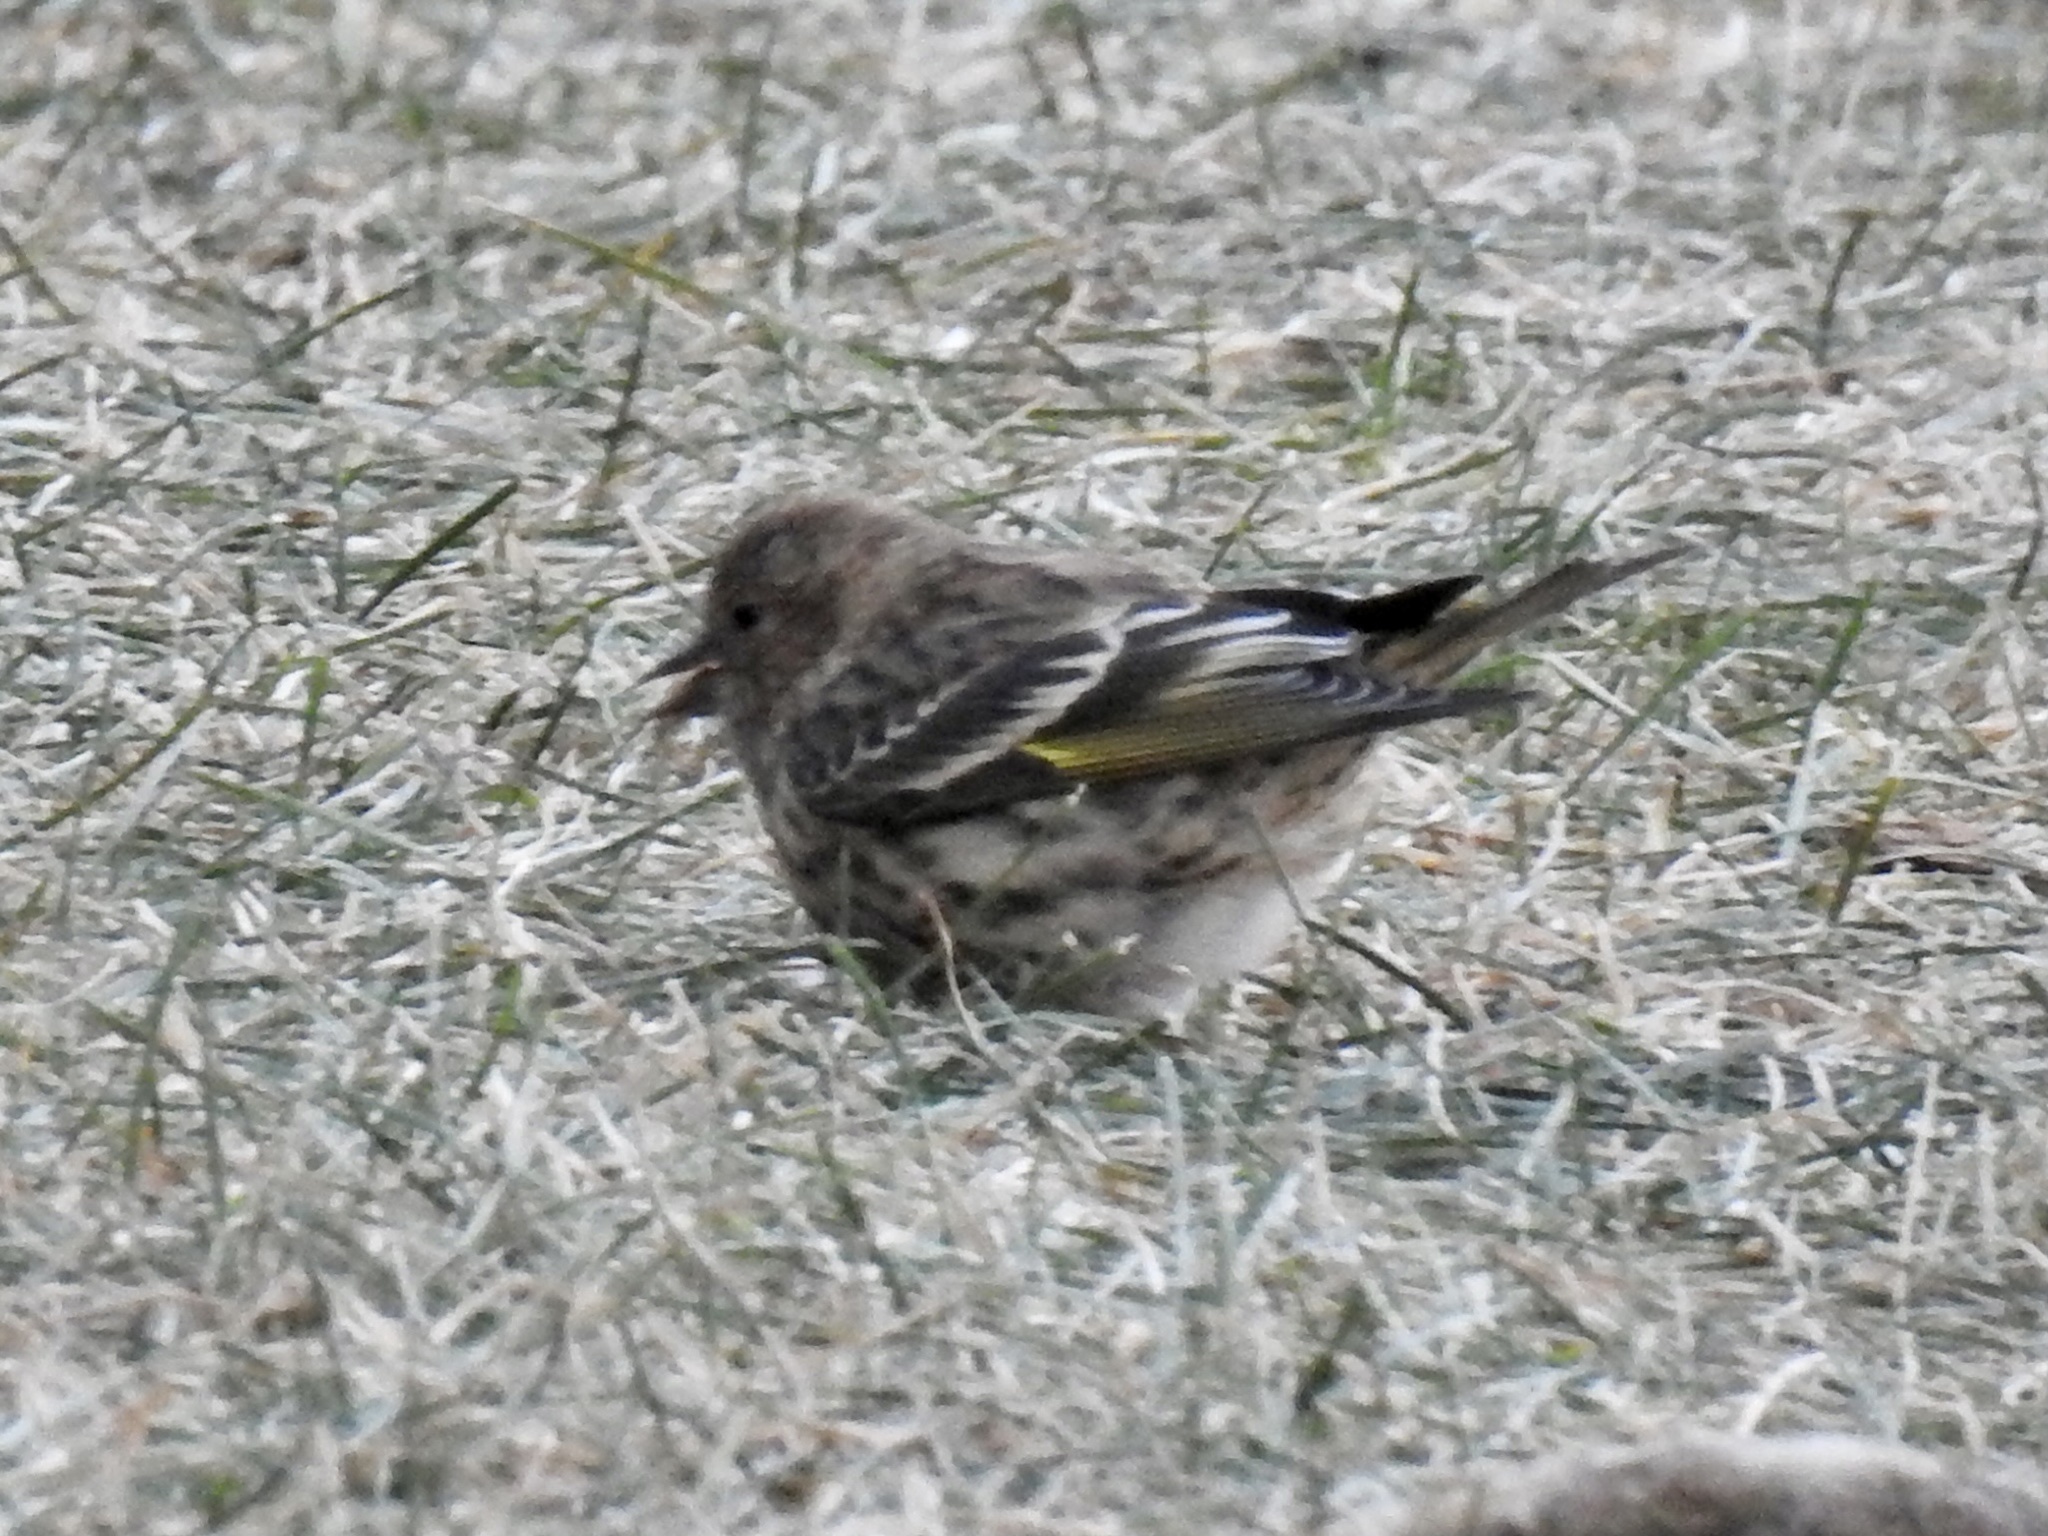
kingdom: Animalia
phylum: Chordata
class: Aves
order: Passeriformes
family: Fringillidae
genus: Spinus
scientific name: Spinus pinus
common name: Pine siskin
